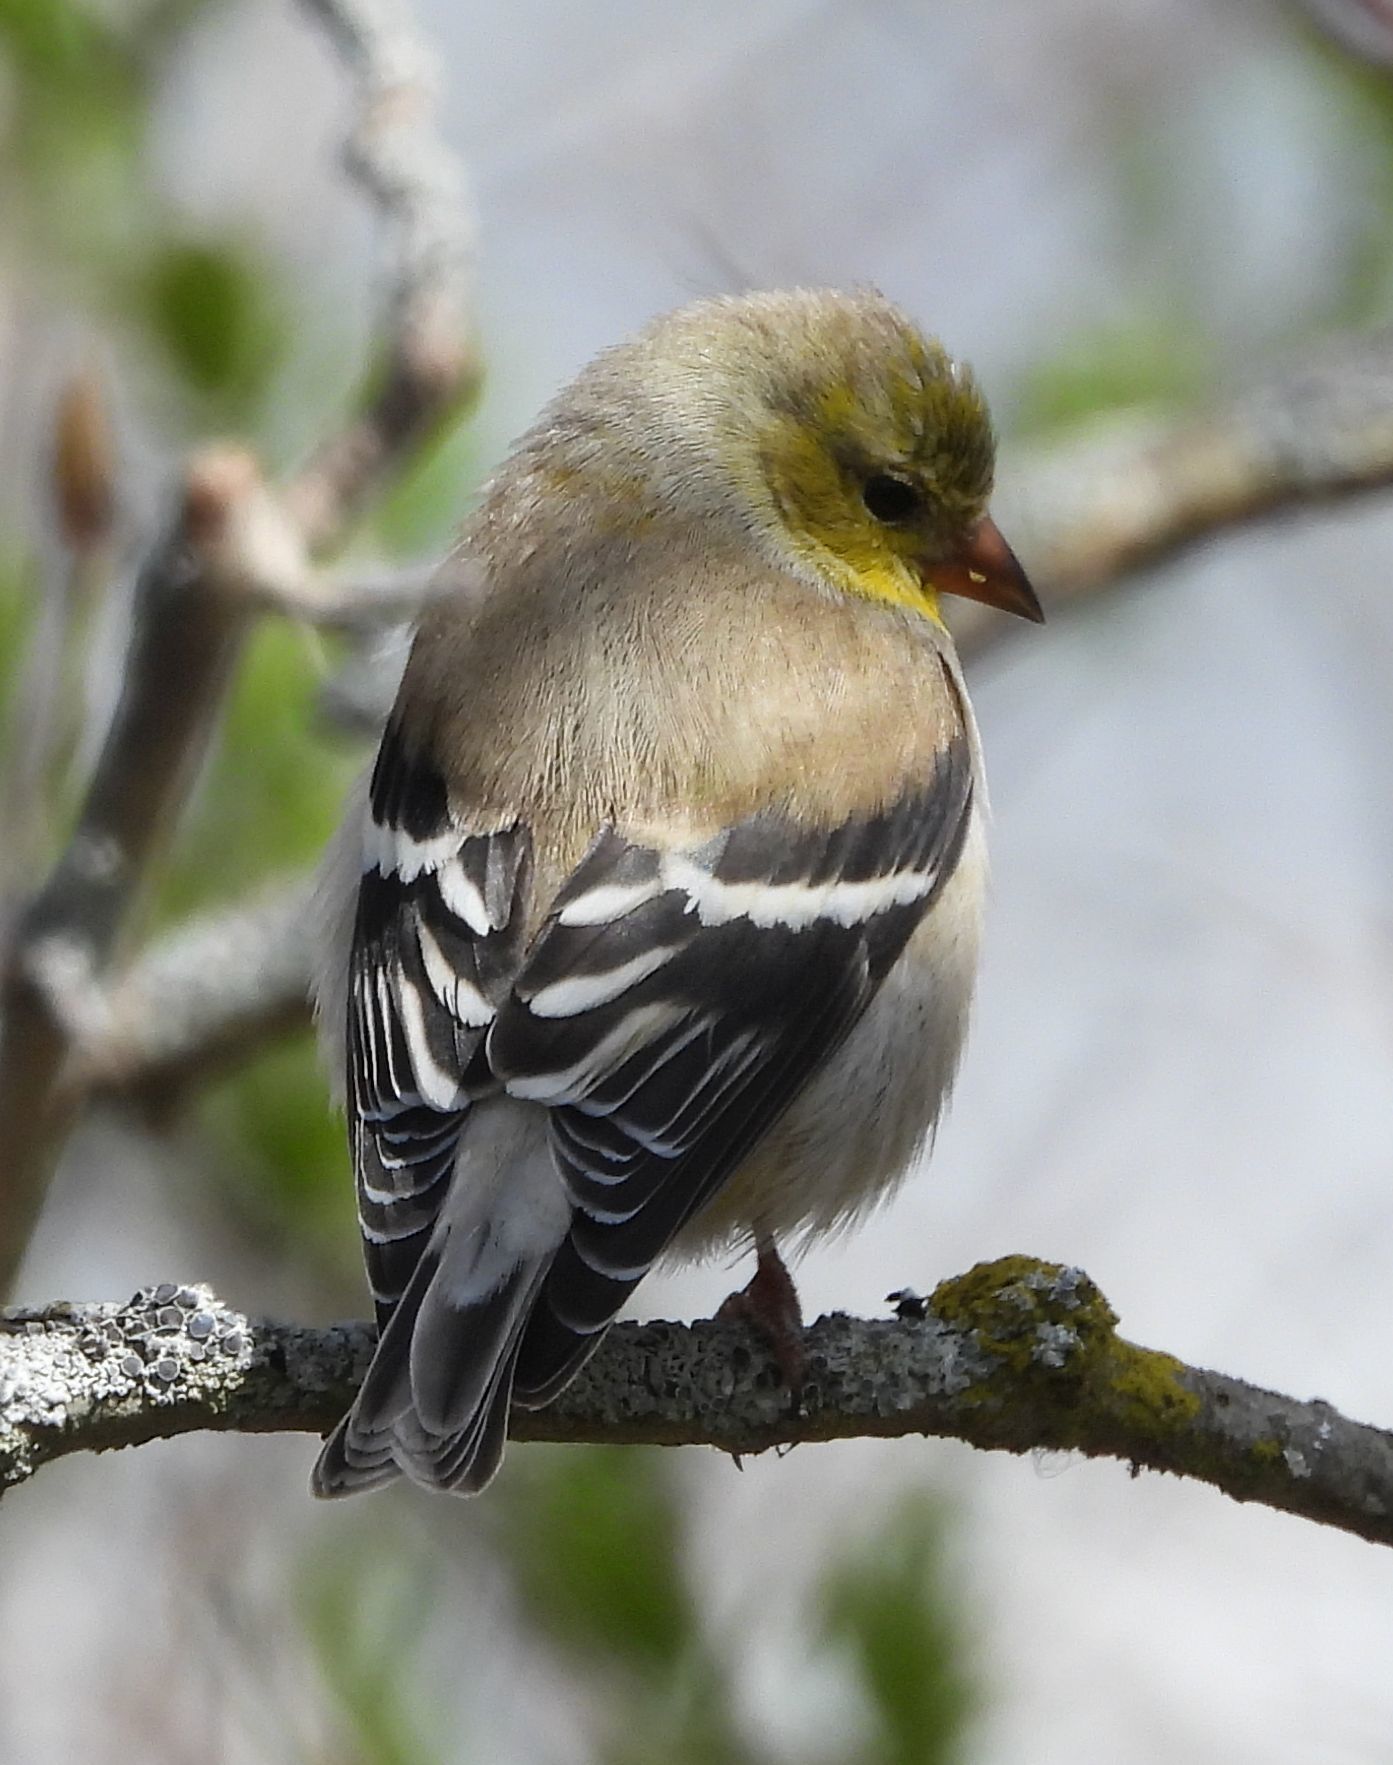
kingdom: Animalia
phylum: Chordata
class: Aves
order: Passeriformes
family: Fringillidae
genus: Spinus
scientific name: Spinus tristis
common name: American goldfinch
